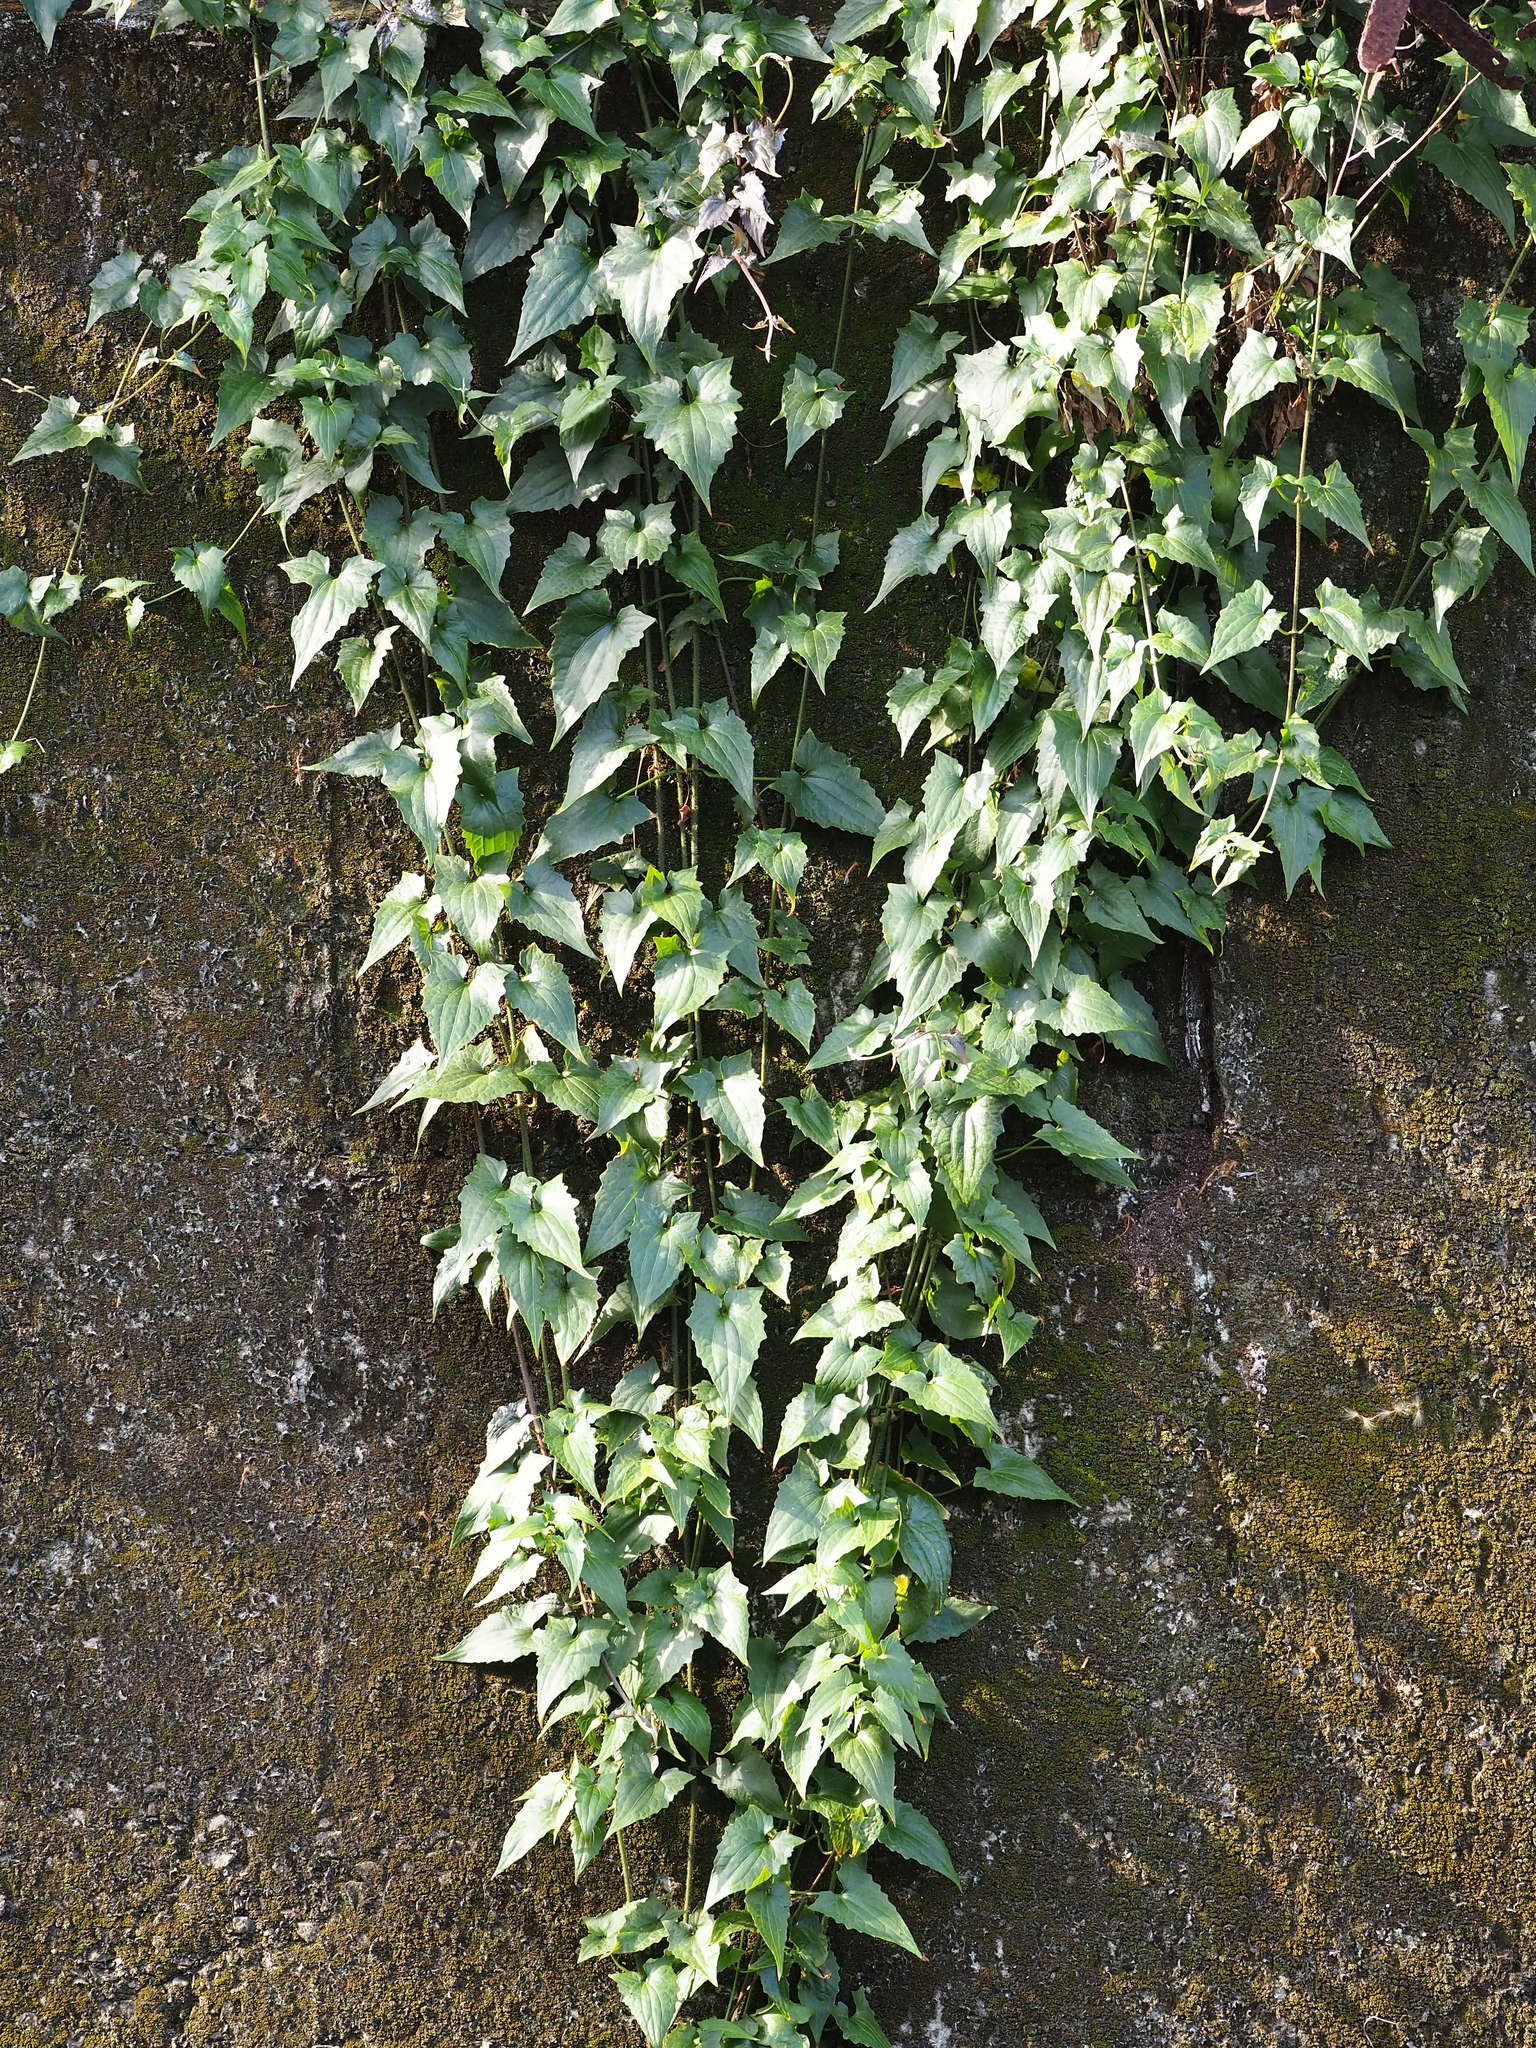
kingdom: Plantae
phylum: Tracheophyta
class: Magnoliopsida
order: Asterales
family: Asteraceae
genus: Mikania
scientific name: Mikania micrantha
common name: Mile-a-minute
